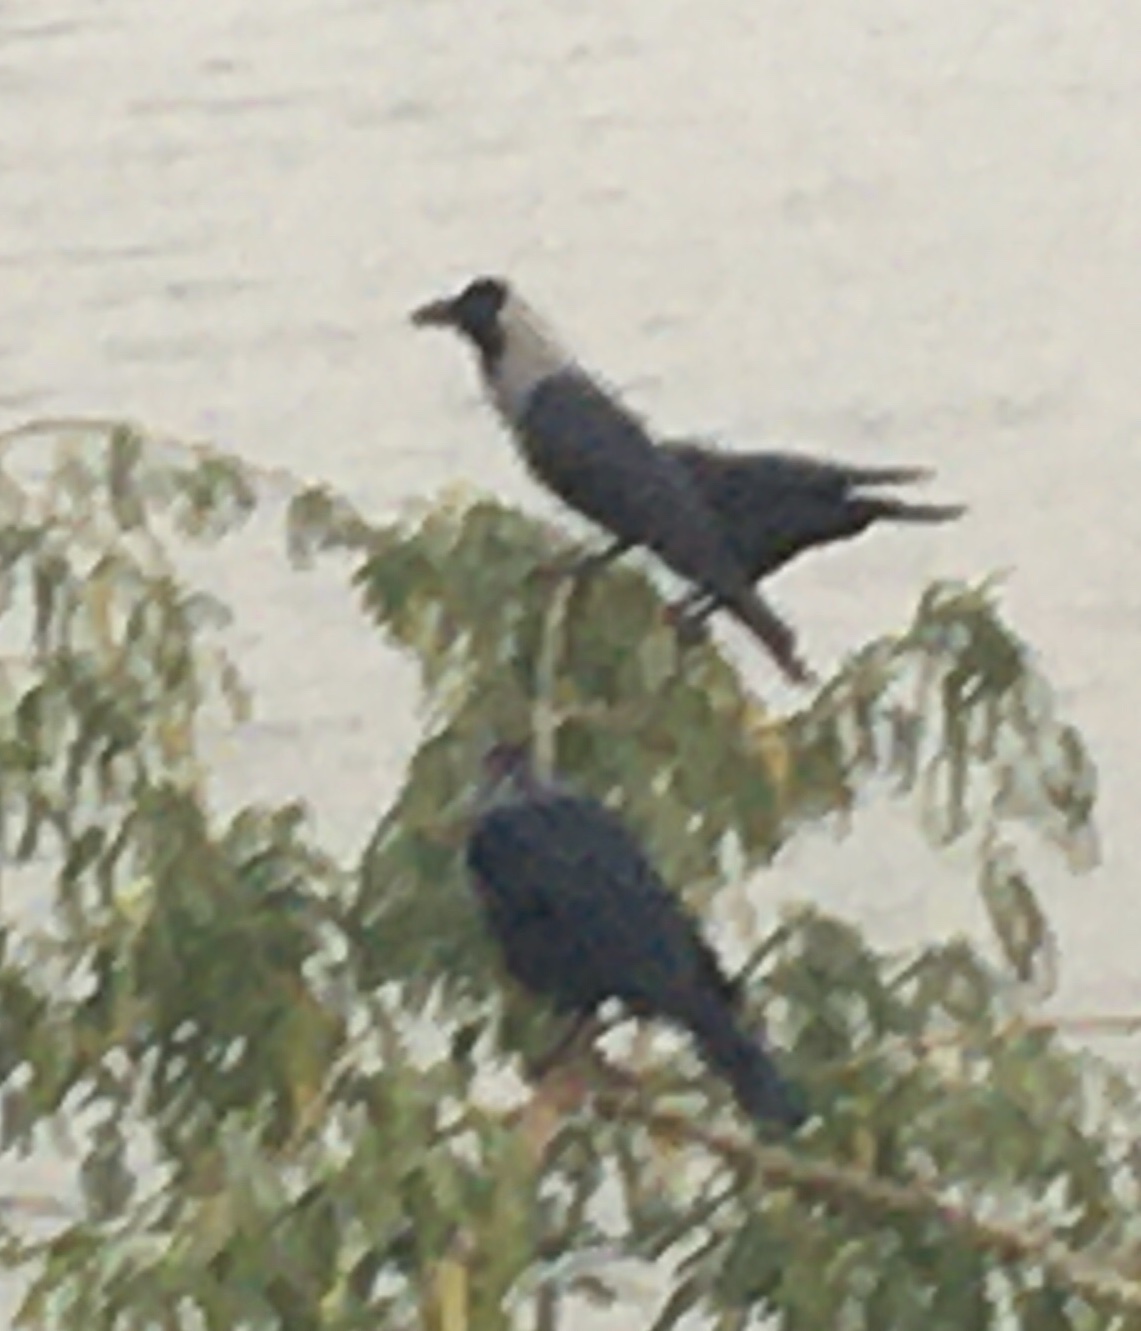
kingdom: Animalia
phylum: Chordata
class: Aves
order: Passeriformes
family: Corvidae
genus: Corvus
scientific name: Corvus splendens
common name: House crow
